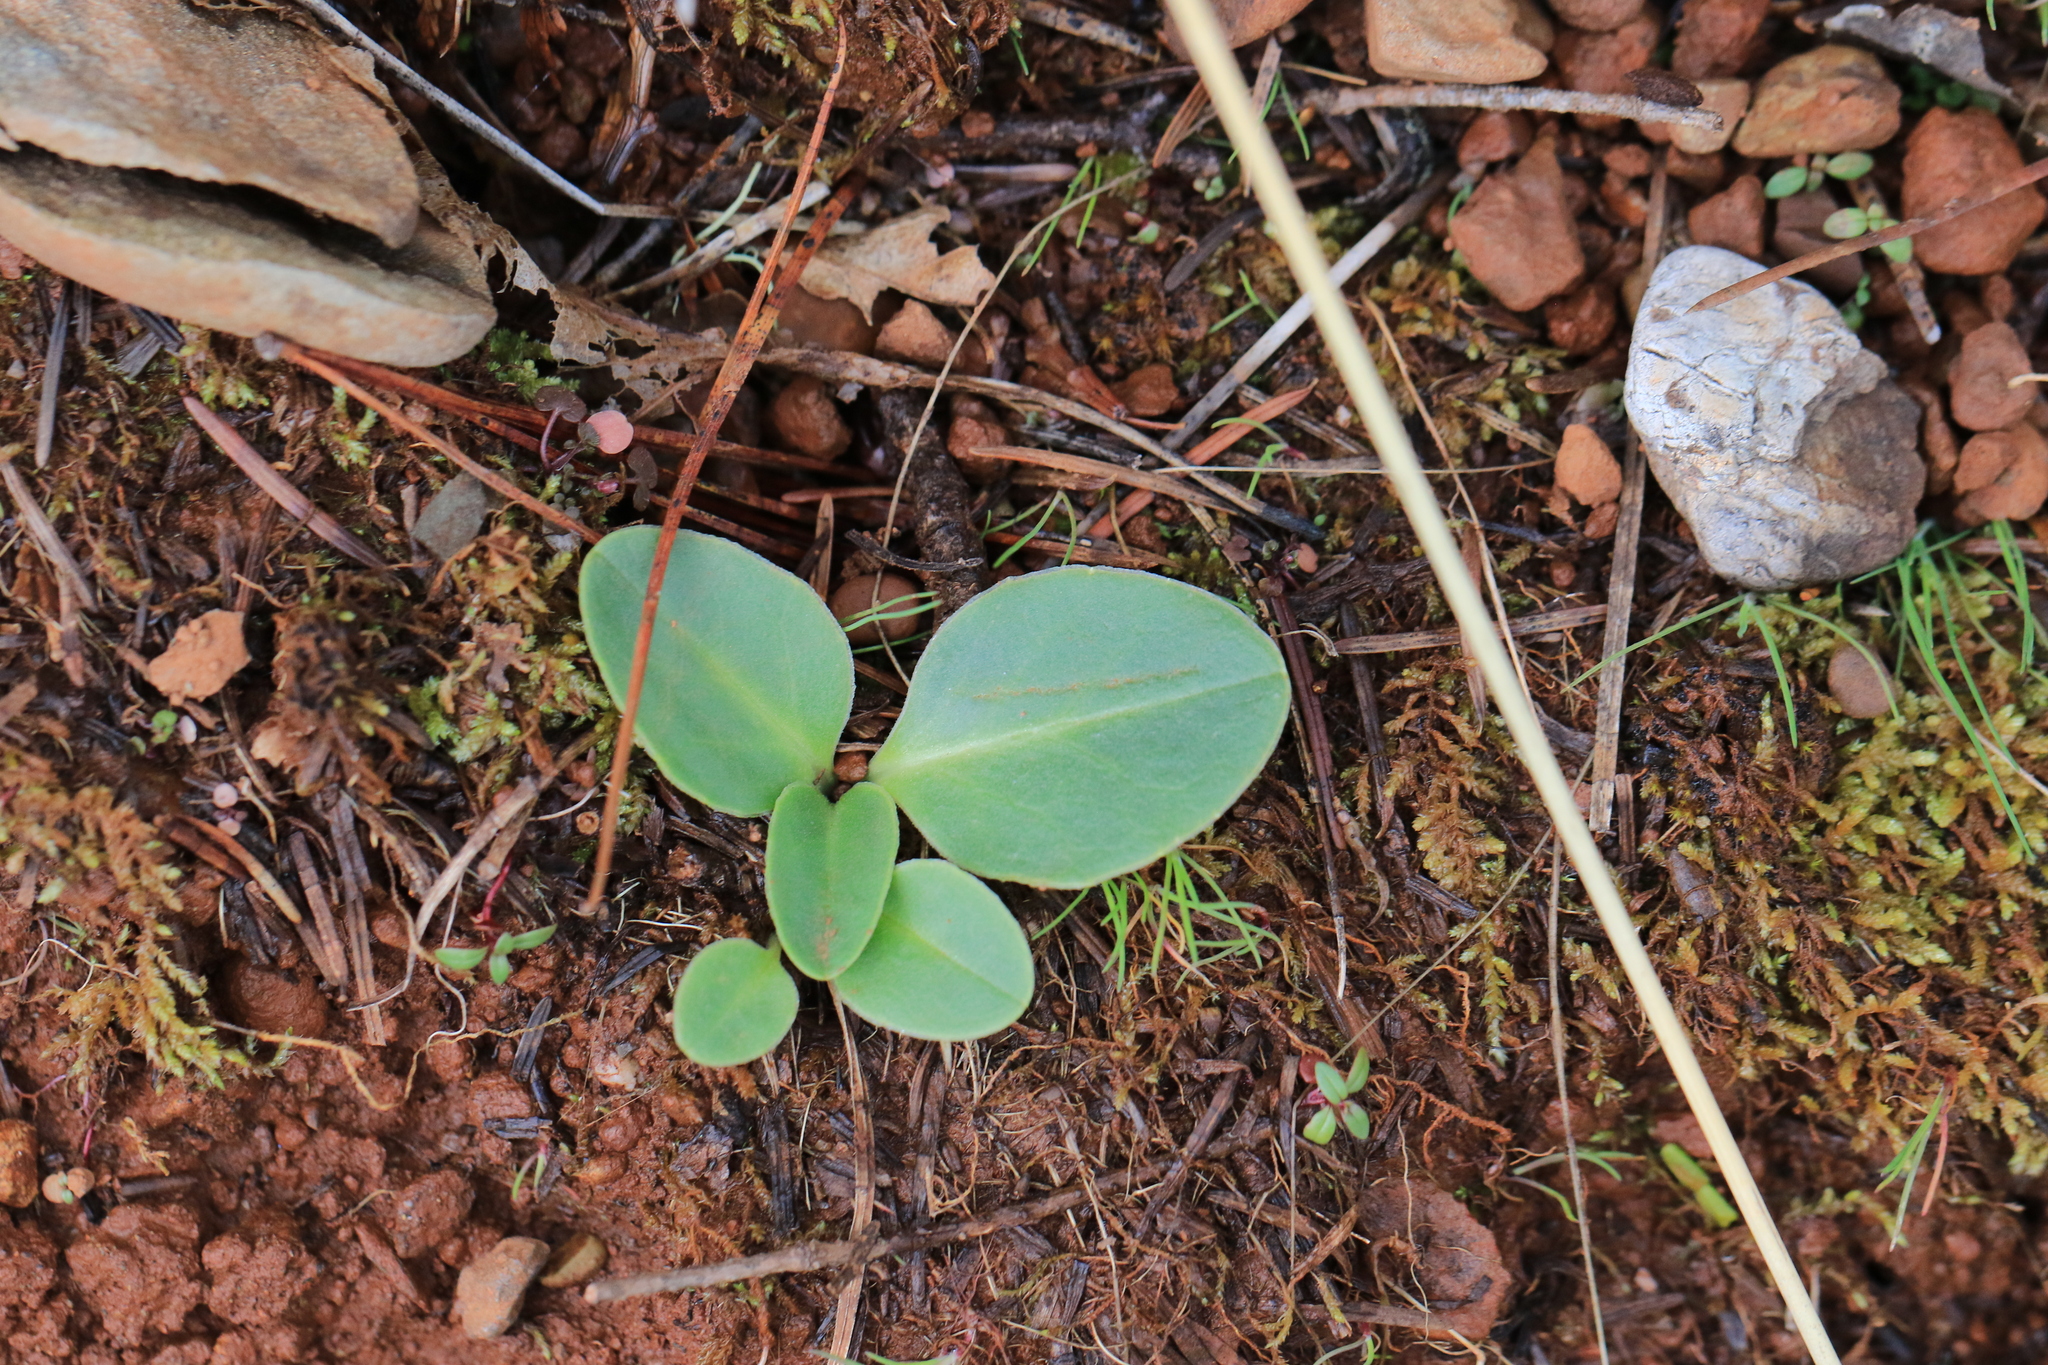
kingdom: Plantae
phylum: Tracheophyta
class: Magnoliopsida
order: Ericales
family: Primulaceae
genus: Dodecatheon
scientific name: Dodecatheon hendersonii
